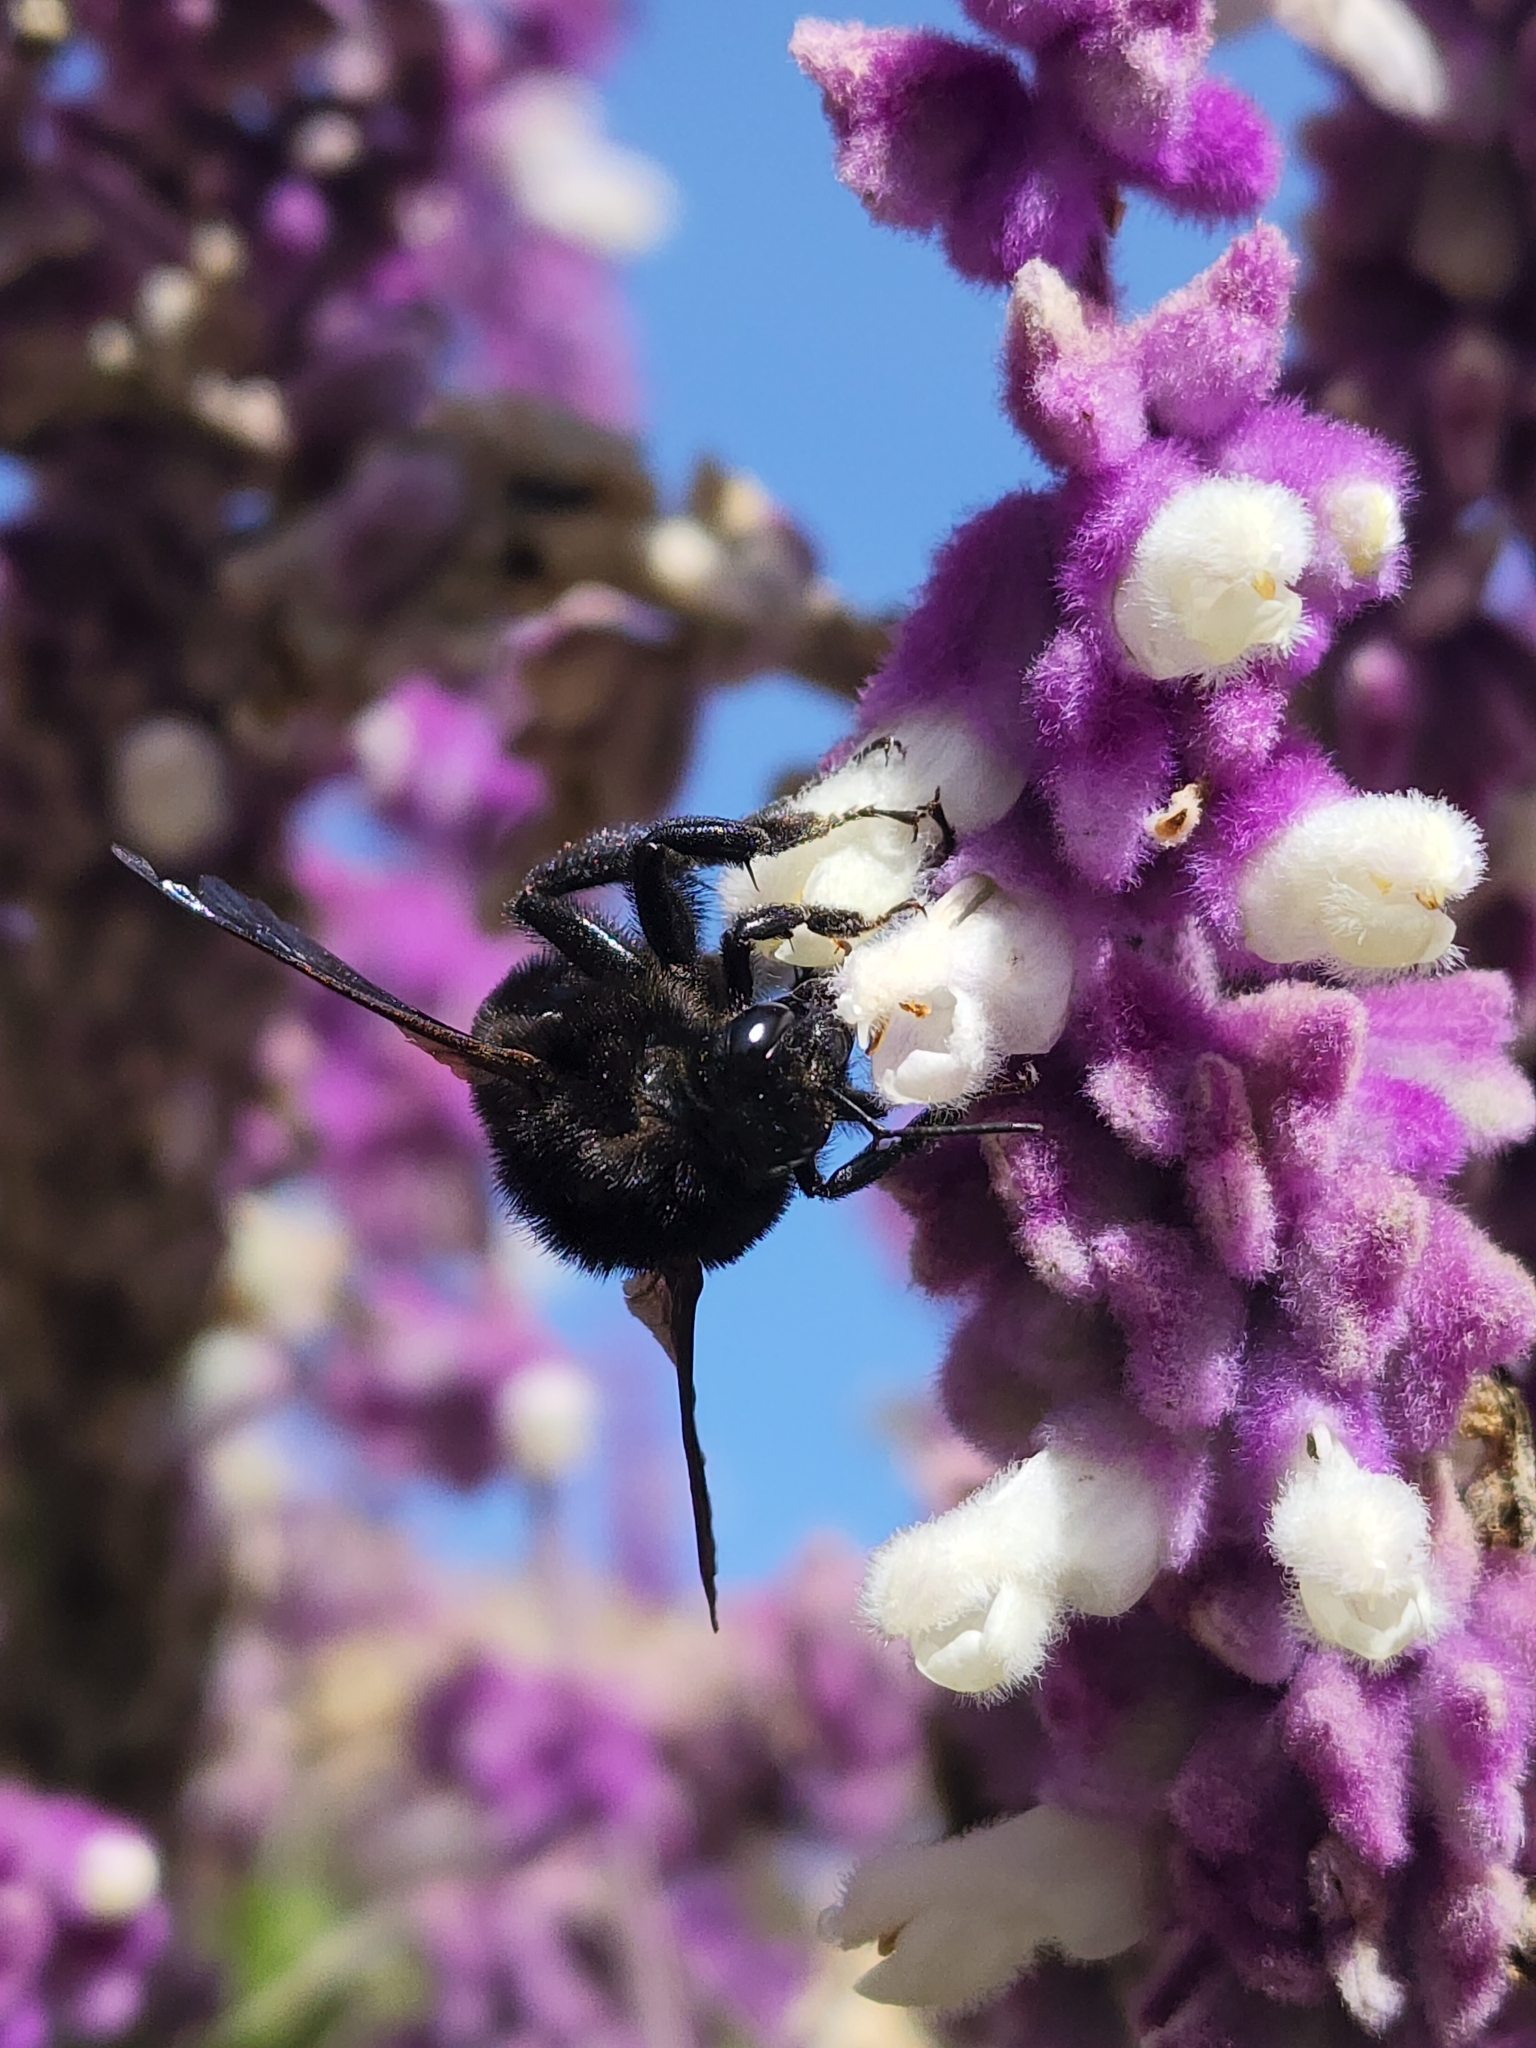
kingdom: Animalia
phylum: Arthropoda
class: Insecta
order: Hymenoptera
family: Apidae
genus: Bombus
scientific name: Bombus pauloensis
